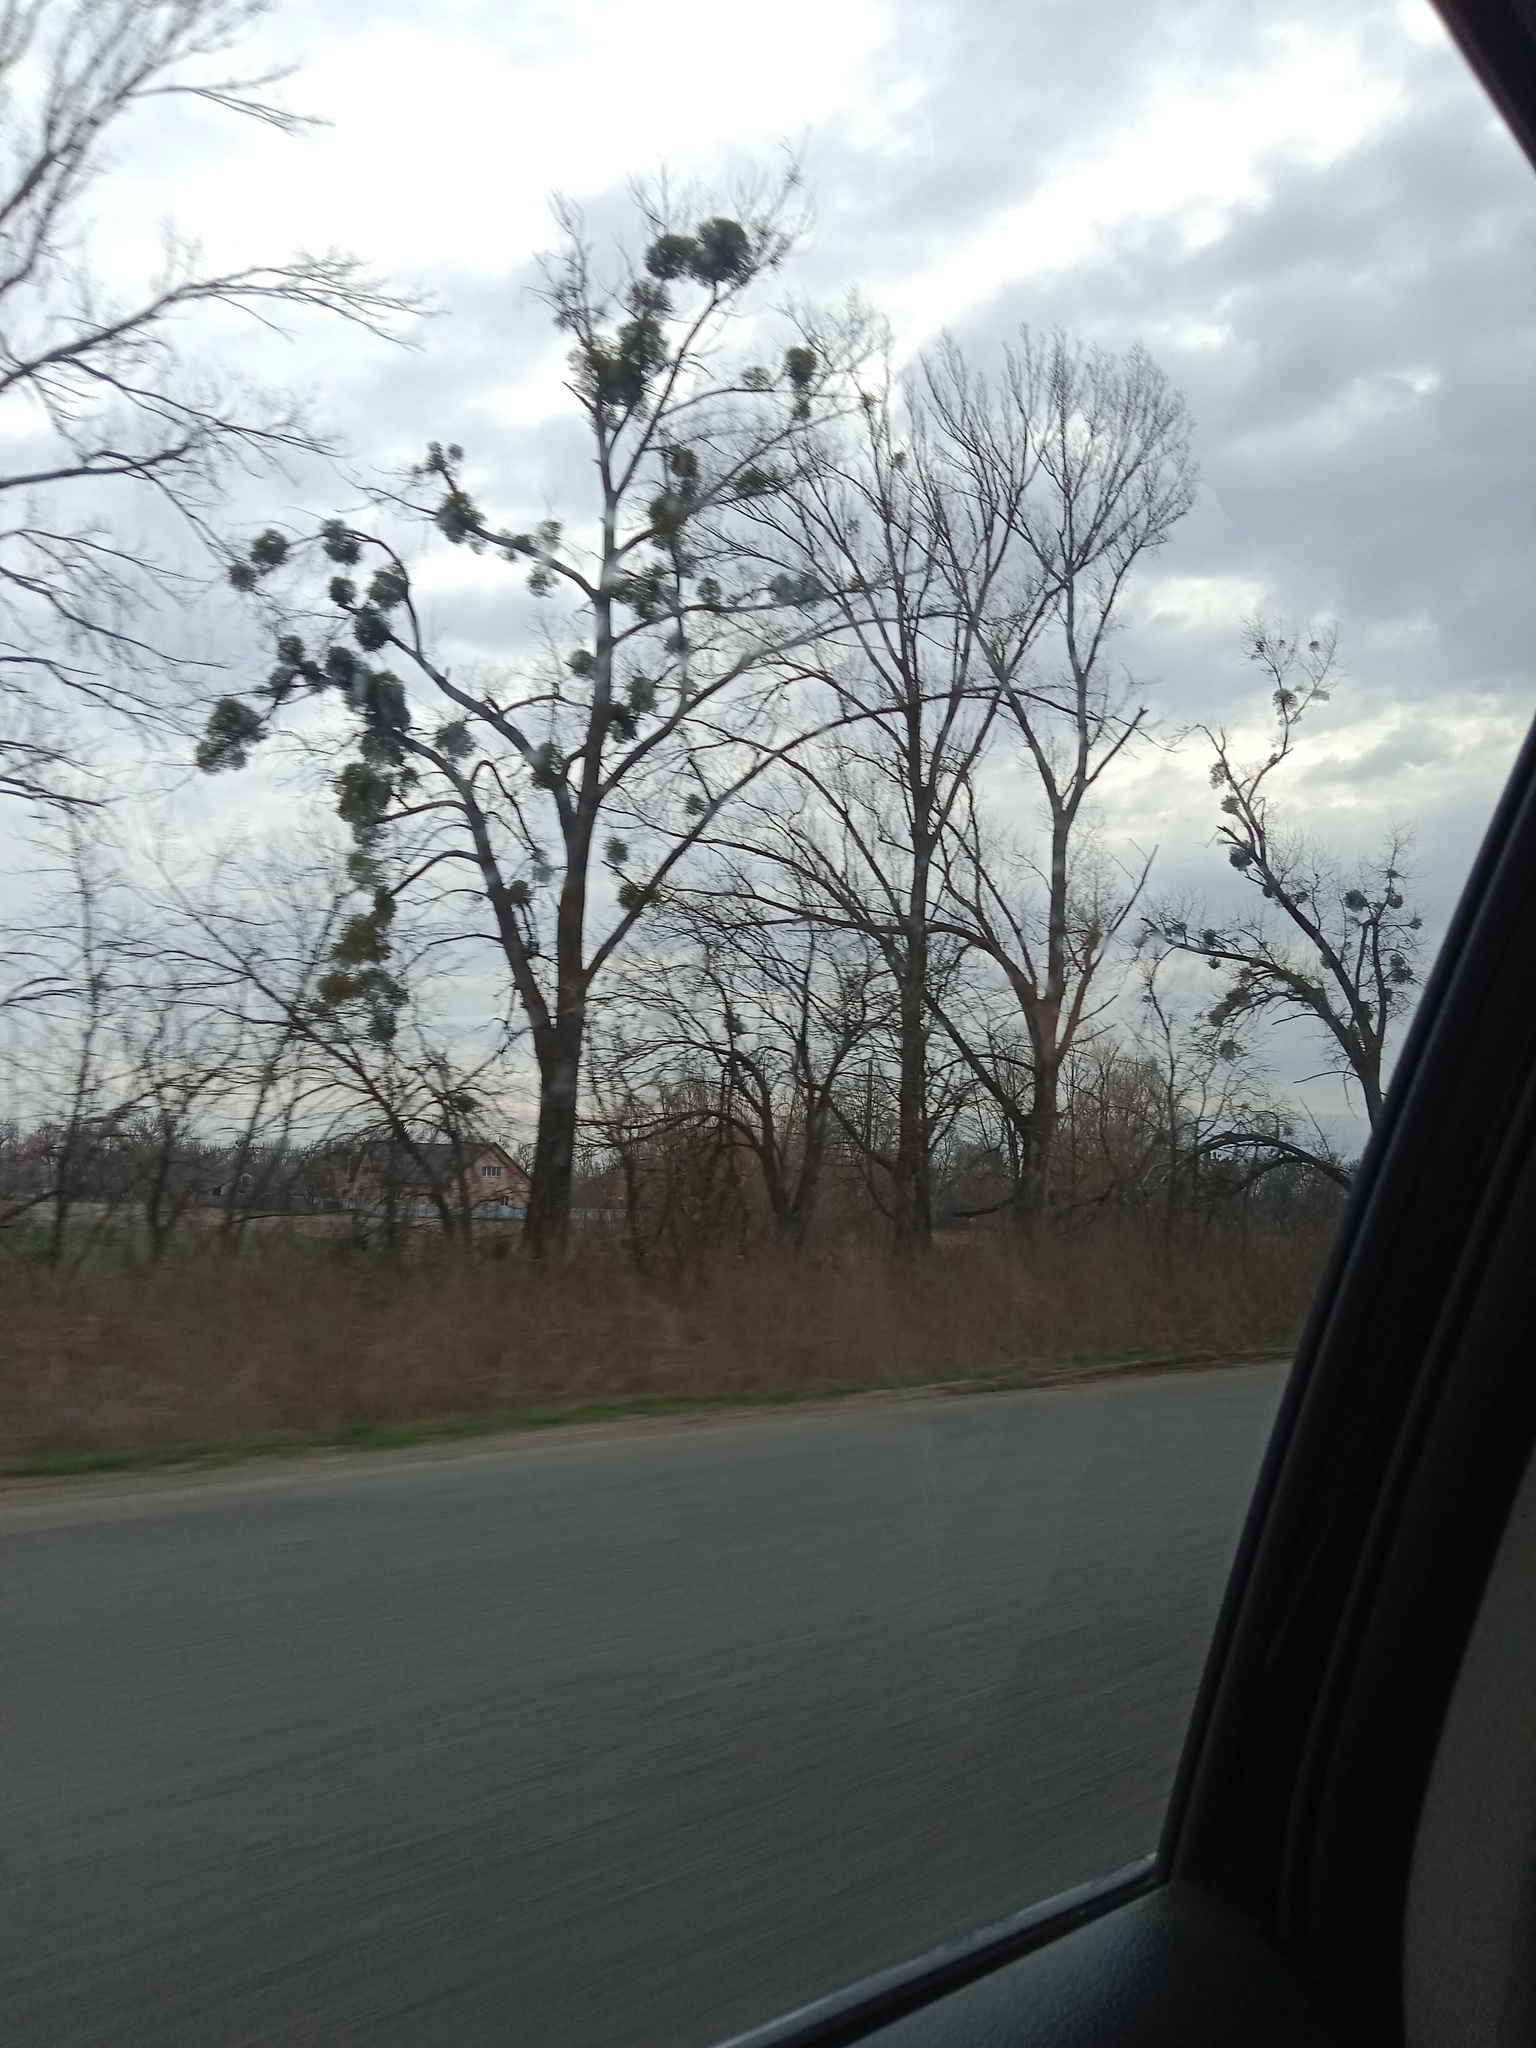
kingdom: Plantae
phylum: Tracheophyta
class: Magnoliopsida
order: Santalales
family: Viscaceae
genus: Viscum
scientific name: Viscum album
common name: Mistletoe
